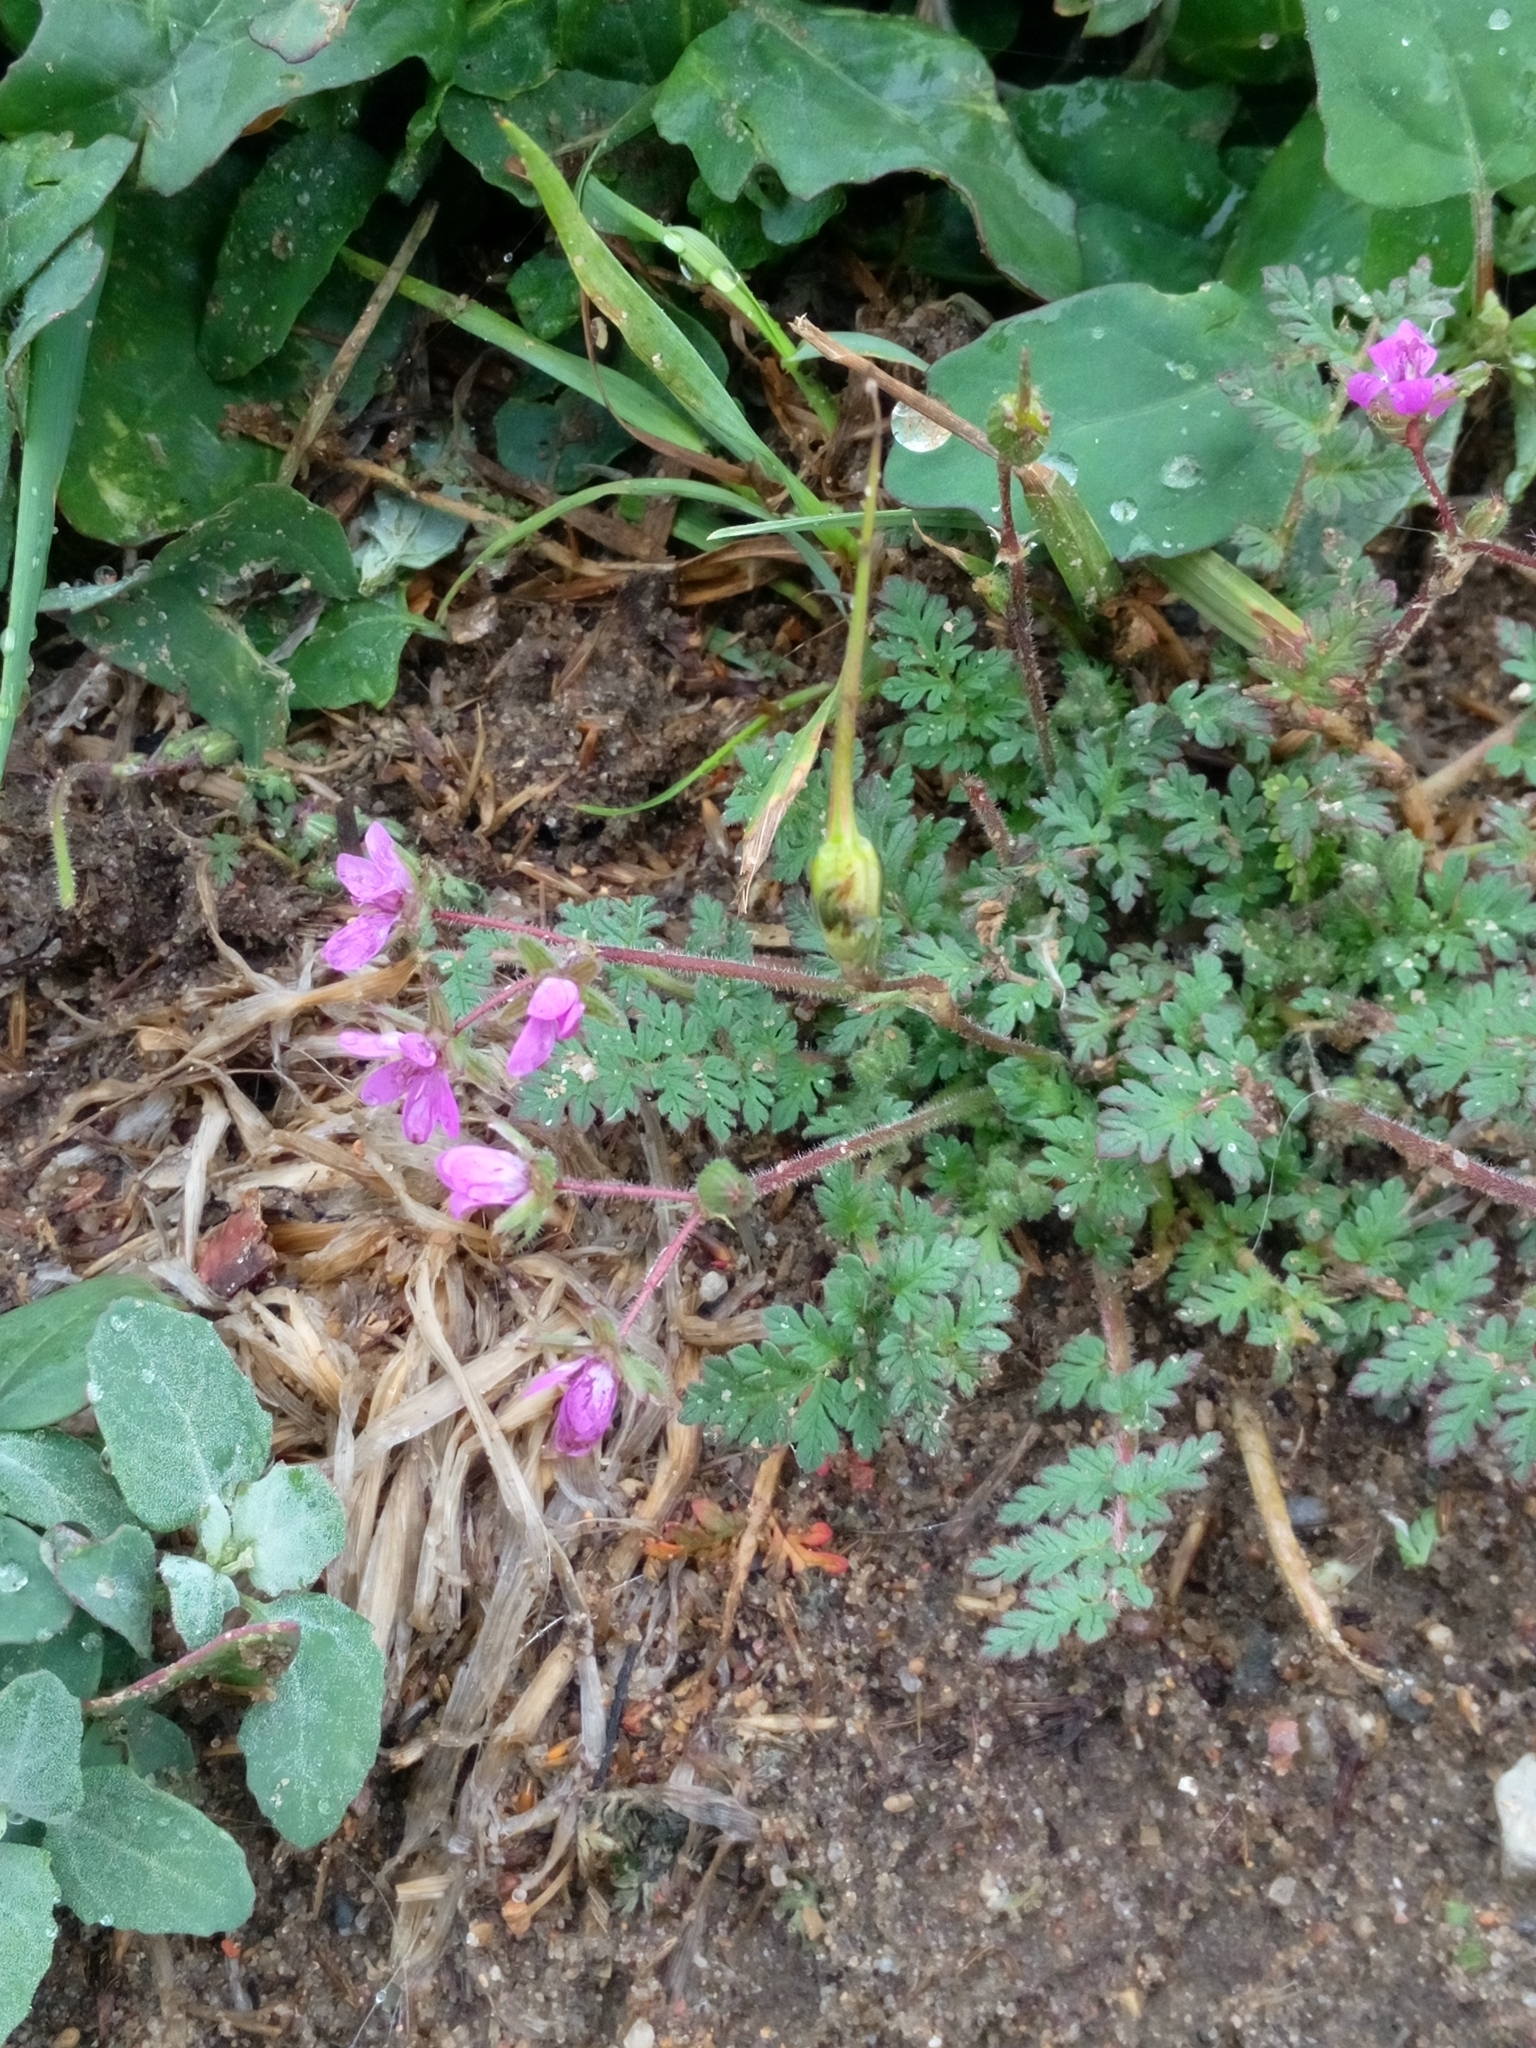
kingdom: Plantae
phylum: Tracheophyta
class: Magnoliopsida
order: Geraniales
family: Geraniaceae
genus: Erodium
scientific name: Erodium cicutarium
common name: Common stork's-bill
